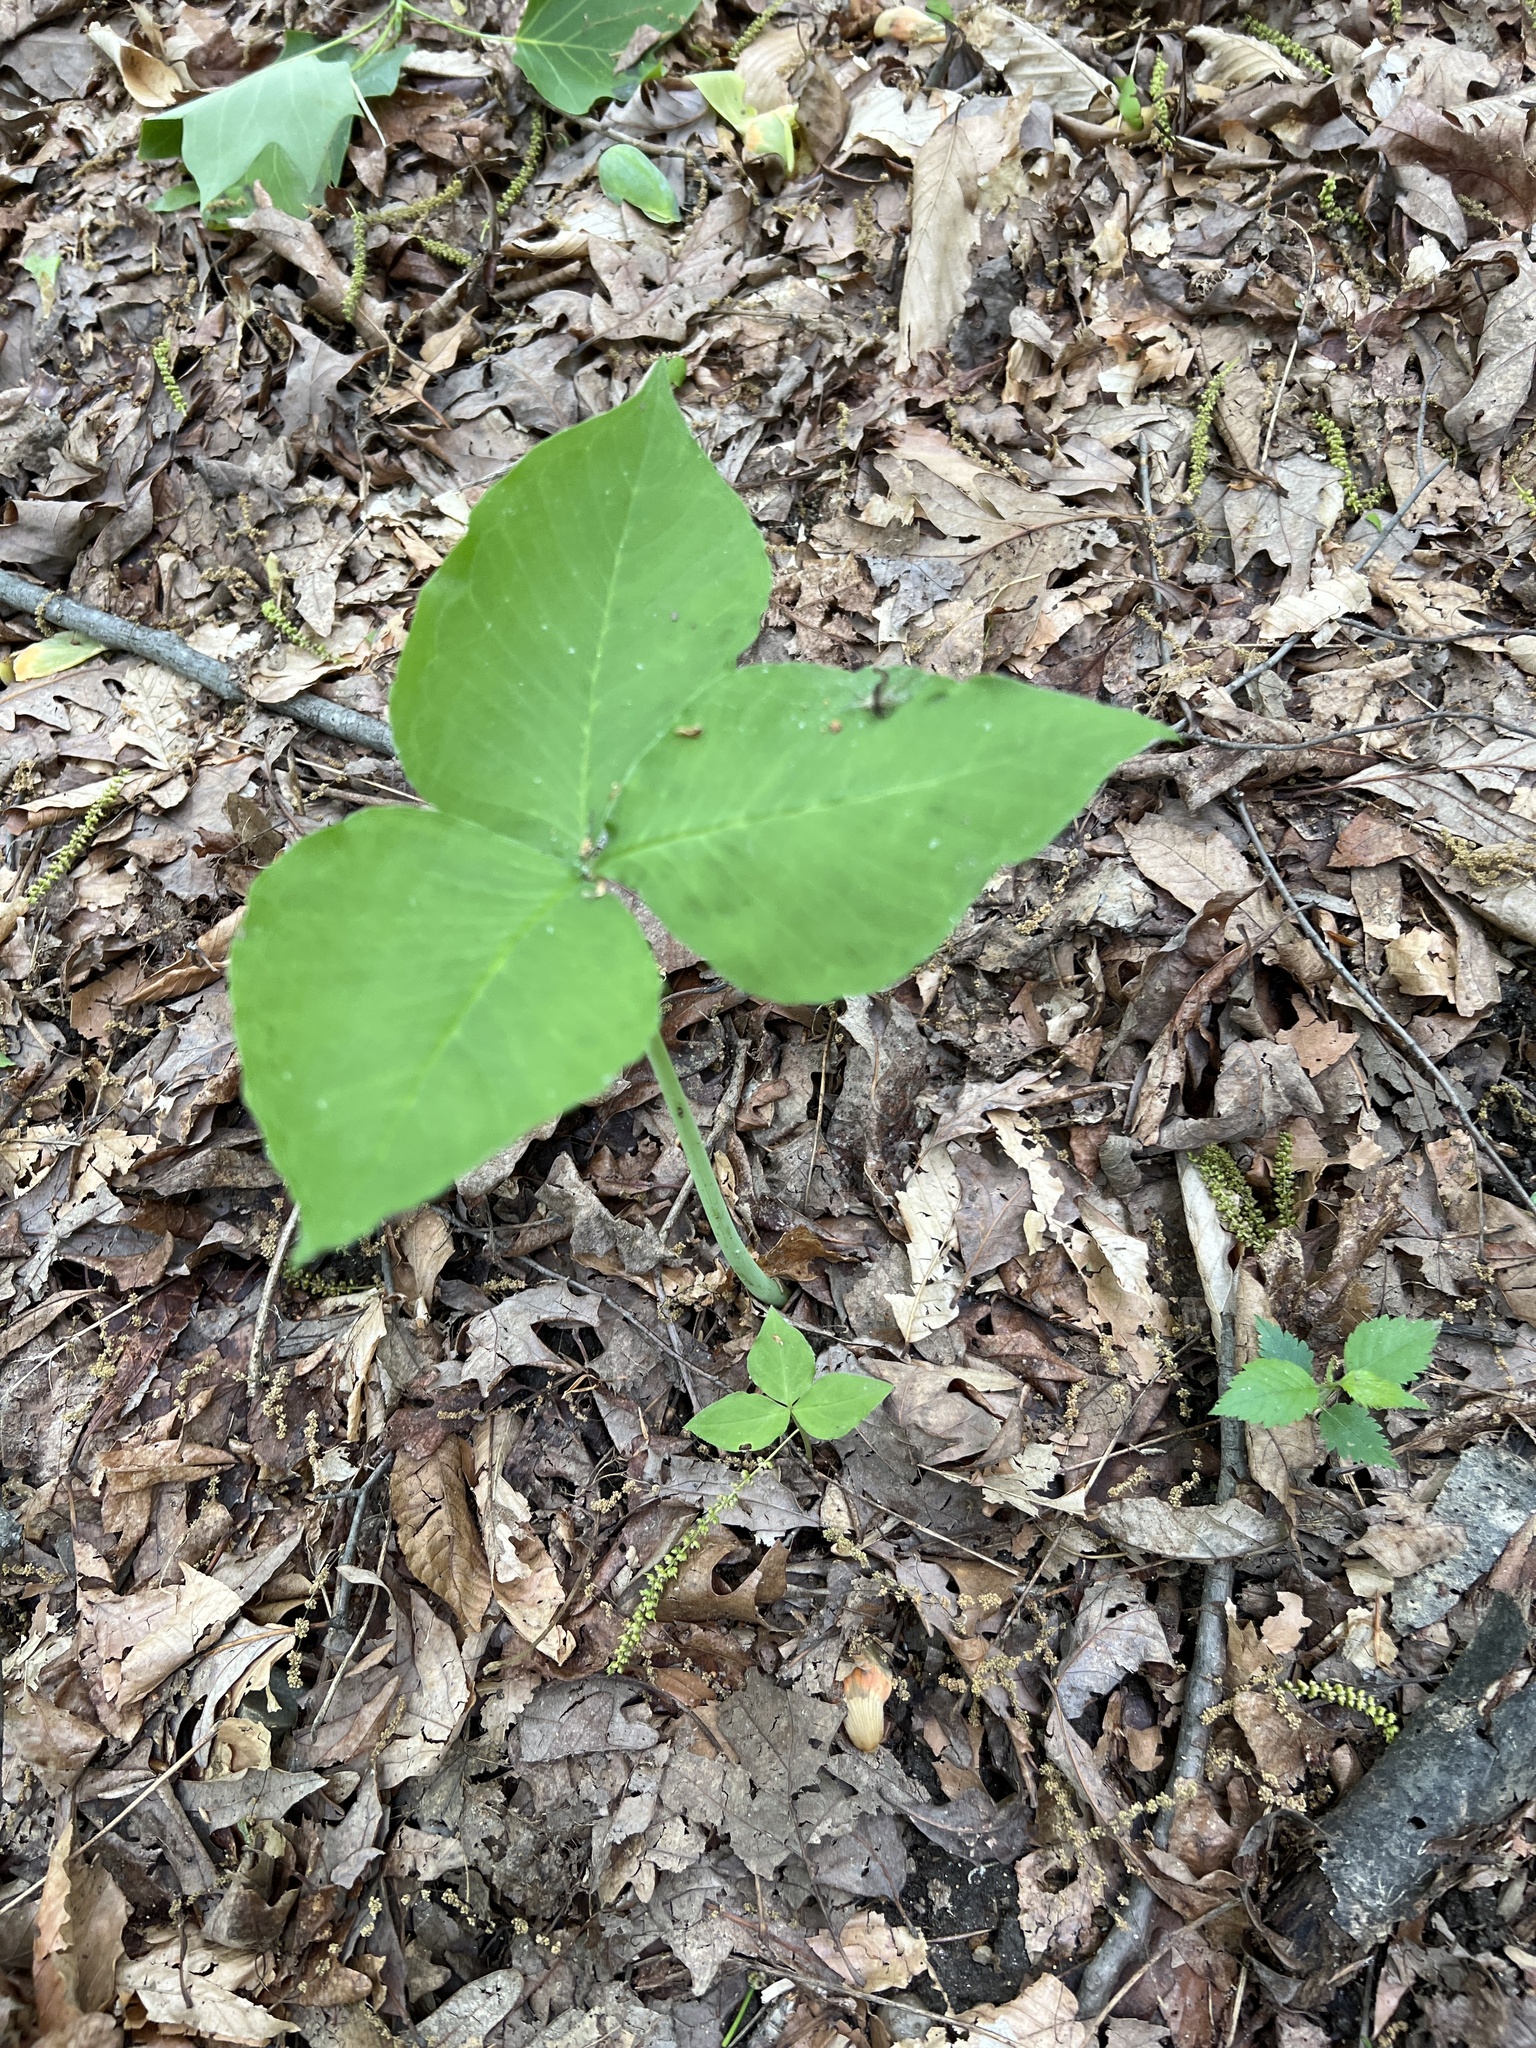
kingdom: Plantae
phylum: Tracheophyta
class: Liliopsida
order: Alismatales
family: Araceae
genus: Arisaema
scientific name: Arisaema triphyllum
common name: Jack-in-the-pulpit
